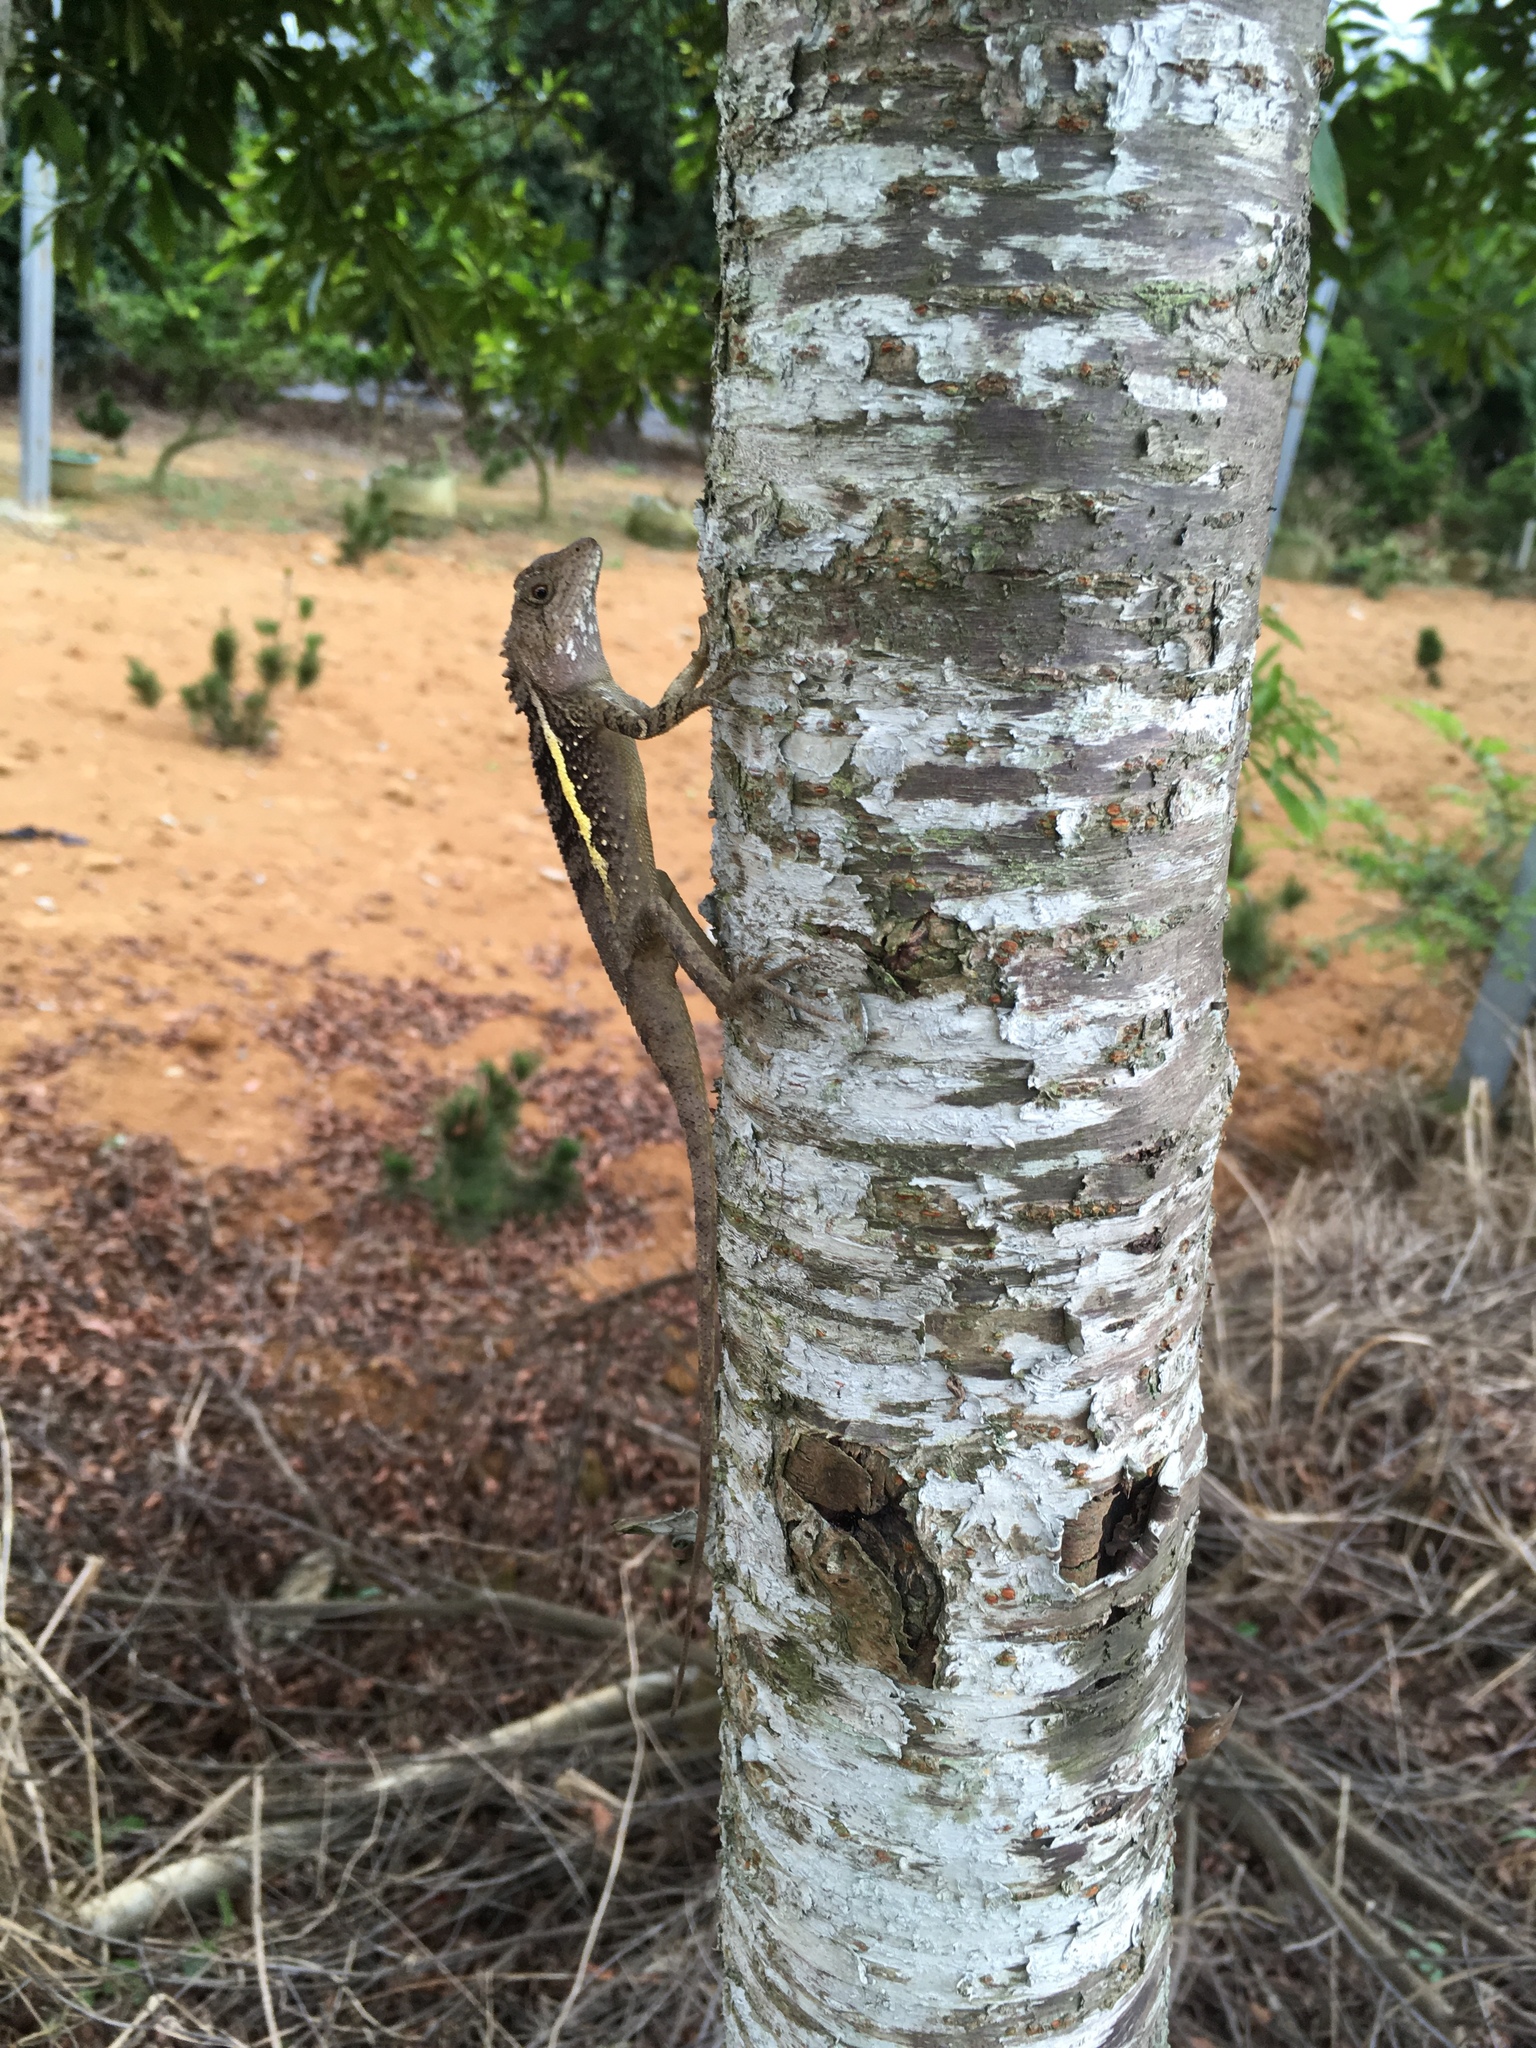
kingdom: Animalia
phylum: Chordata
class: Squamata
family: Agamidae
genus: Diploderma
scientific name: Diploderma swinhonis
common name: Taiwan japalure
